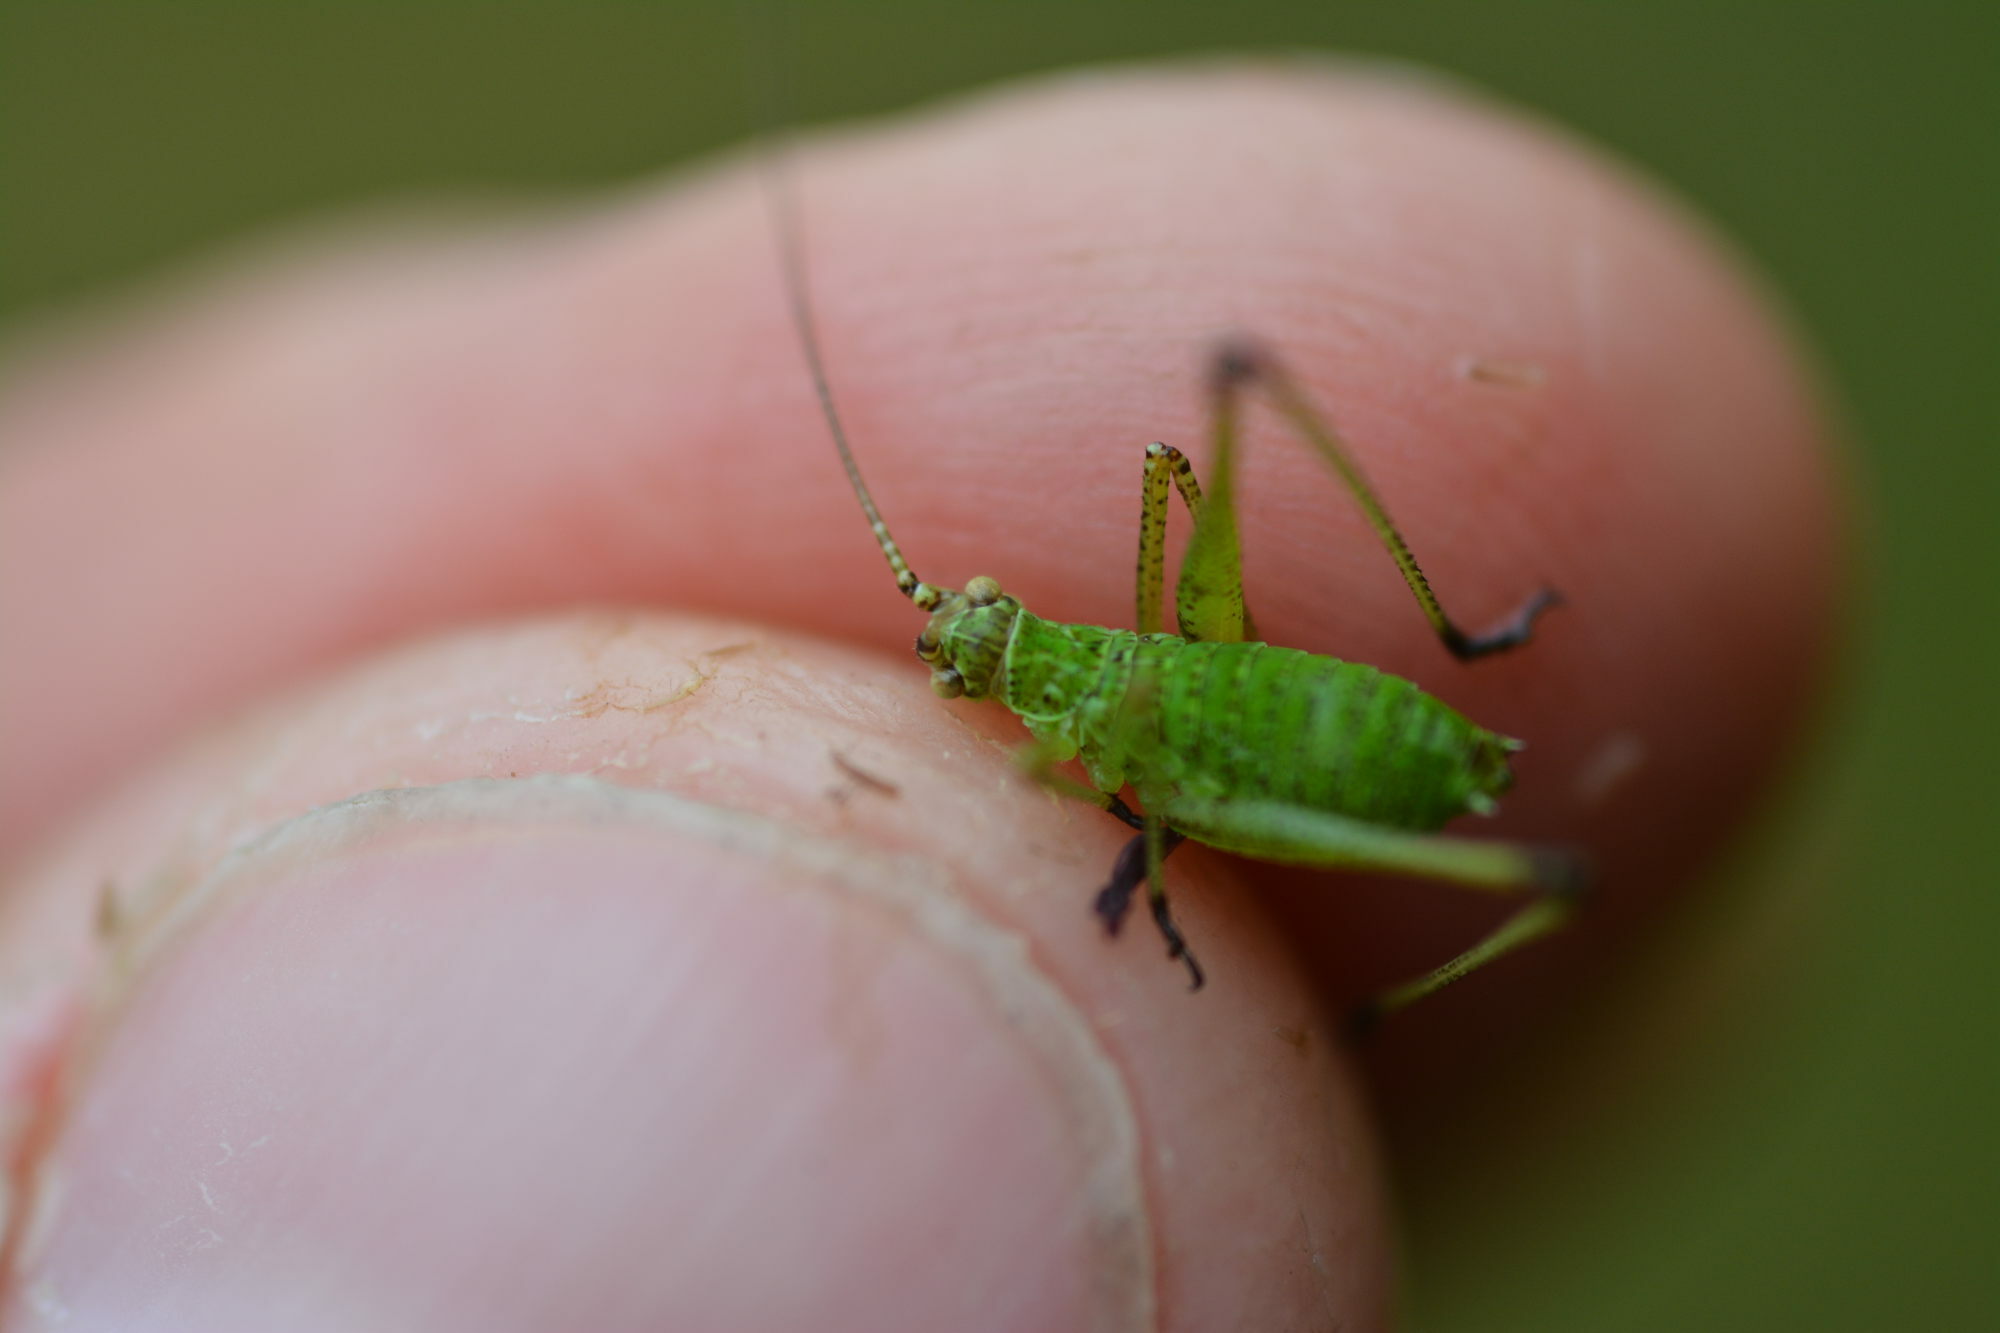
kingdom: Animalia
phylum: Arthropoda
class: Insecta
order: Orthoptera
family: Tettigoniidae
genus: Phaneroptera
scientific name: Phaneroptera falcata
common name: Sickle-bearing bush-cricket
